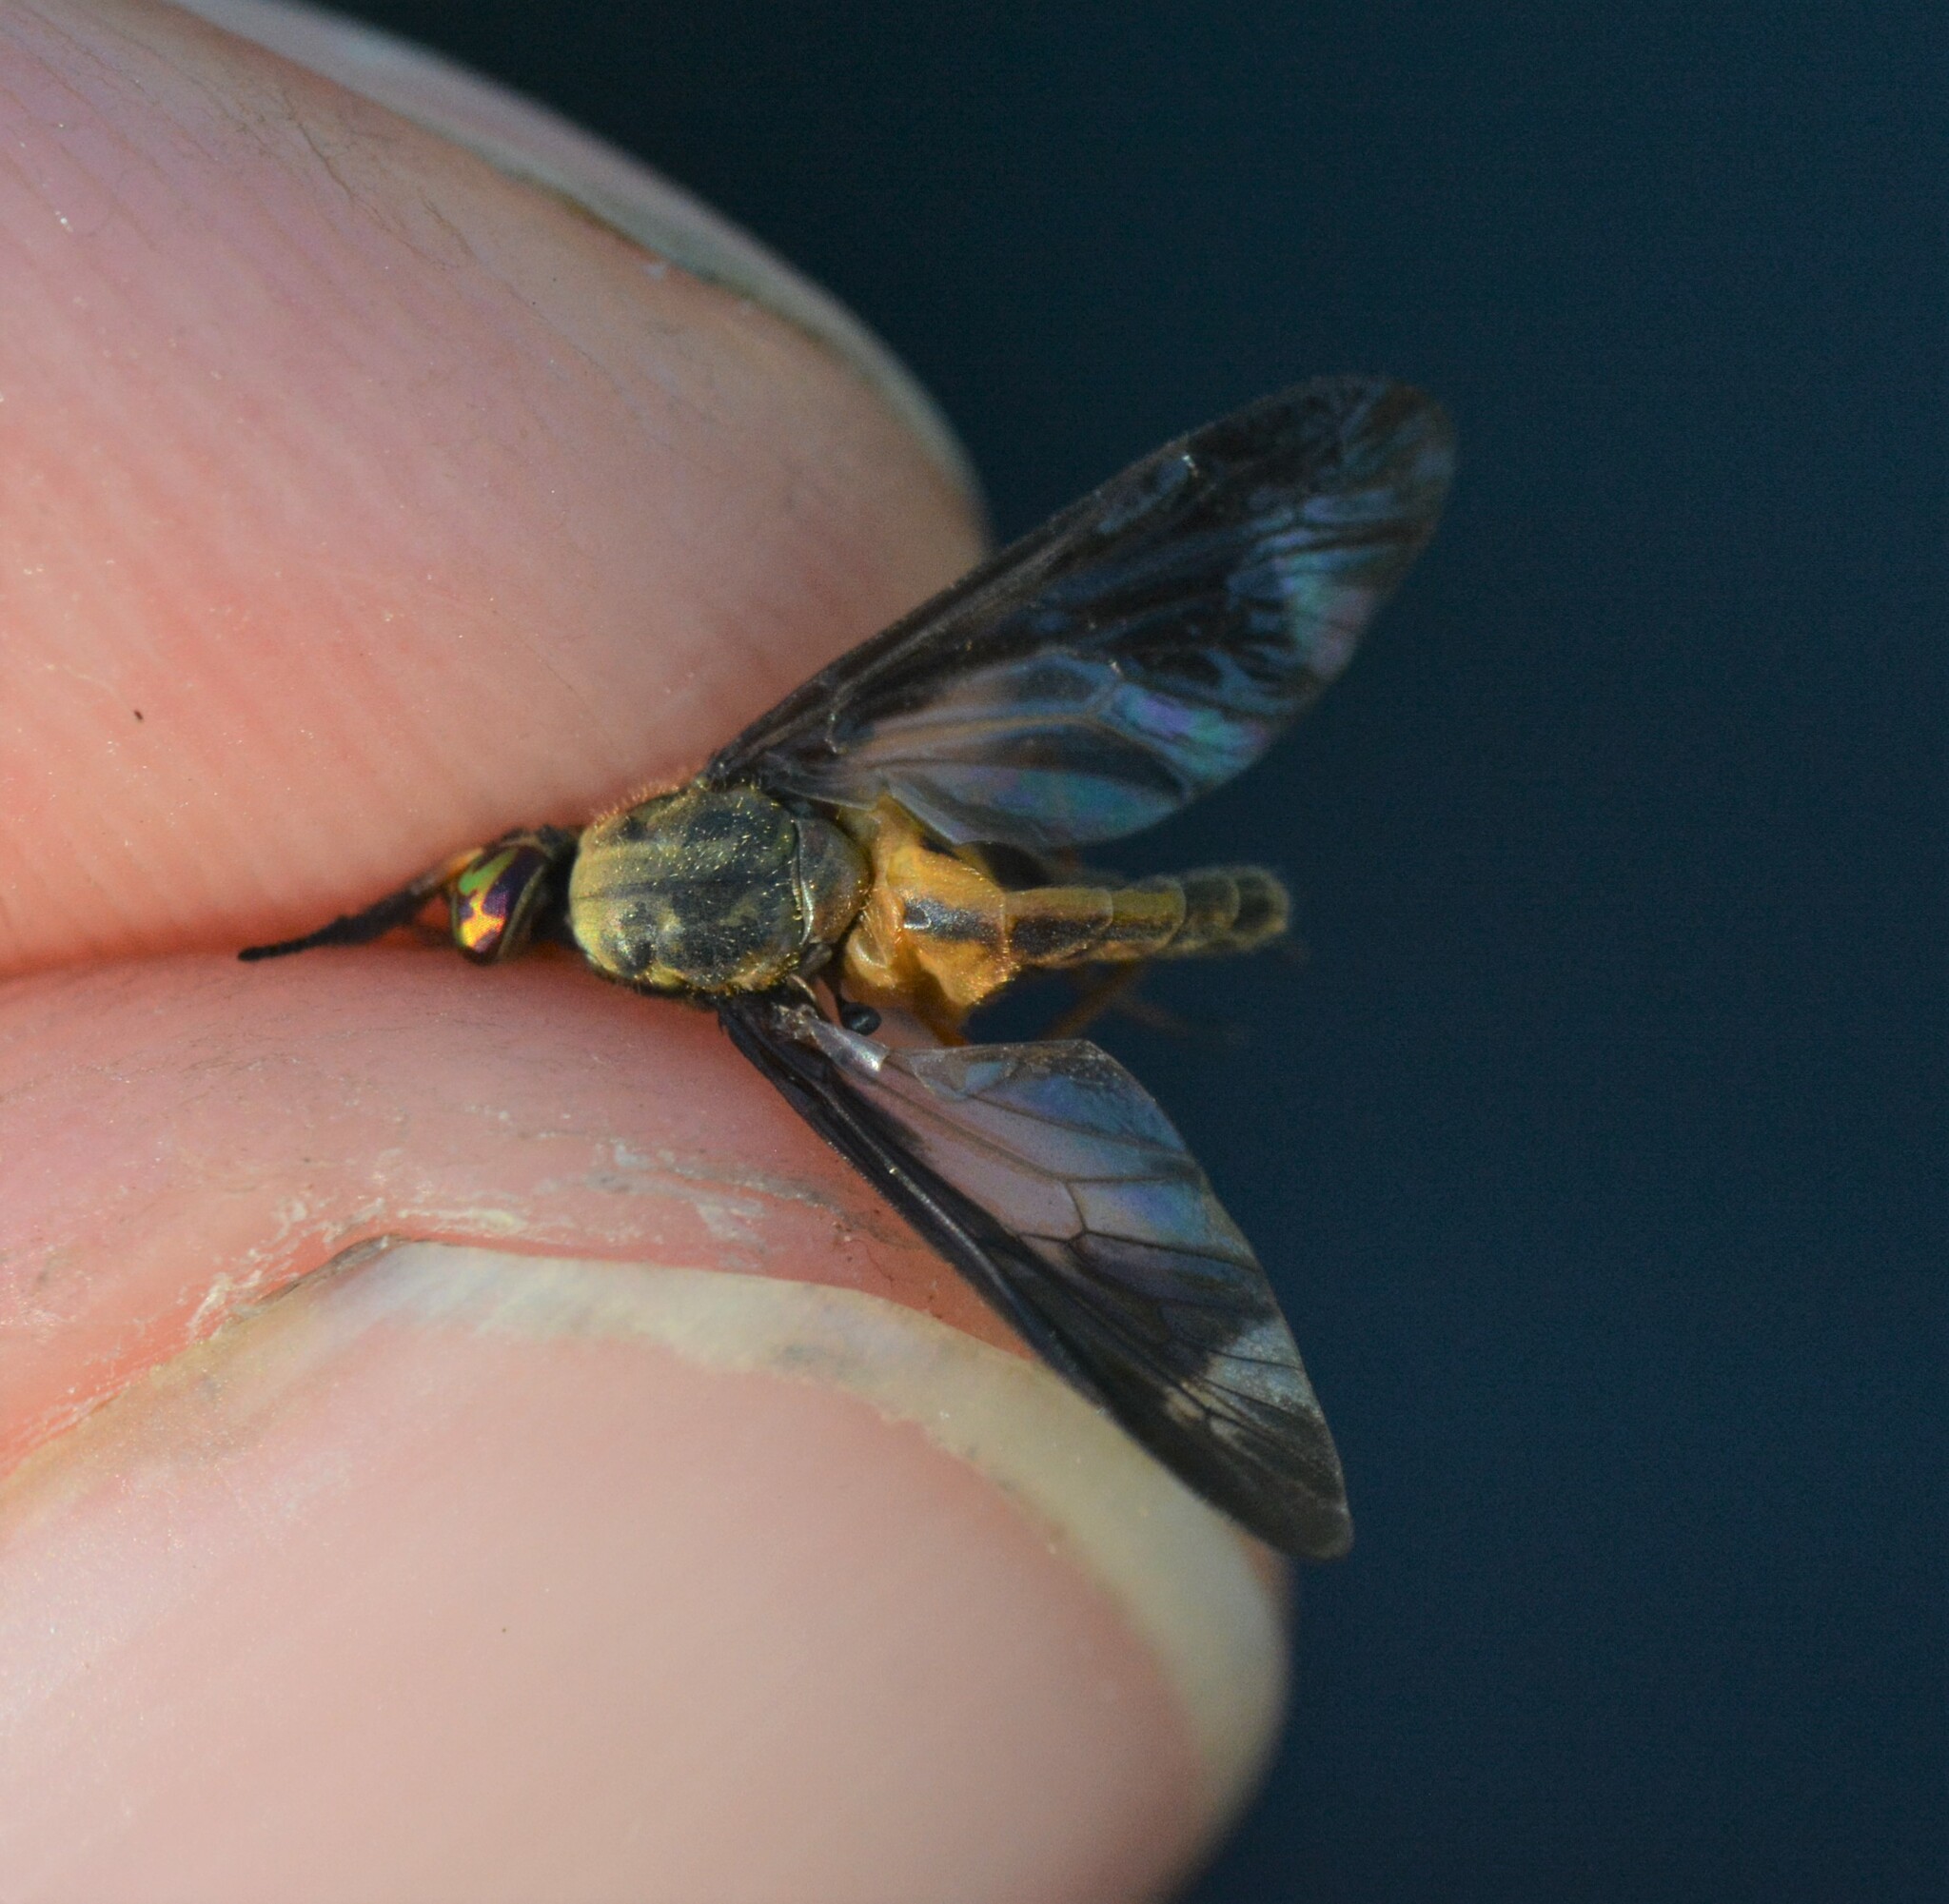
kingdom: Animalia
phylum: Arthropoda
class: Insecta
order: Diptera
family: Tabanidae
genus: Chrysops
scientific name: Chrysops macquarti
